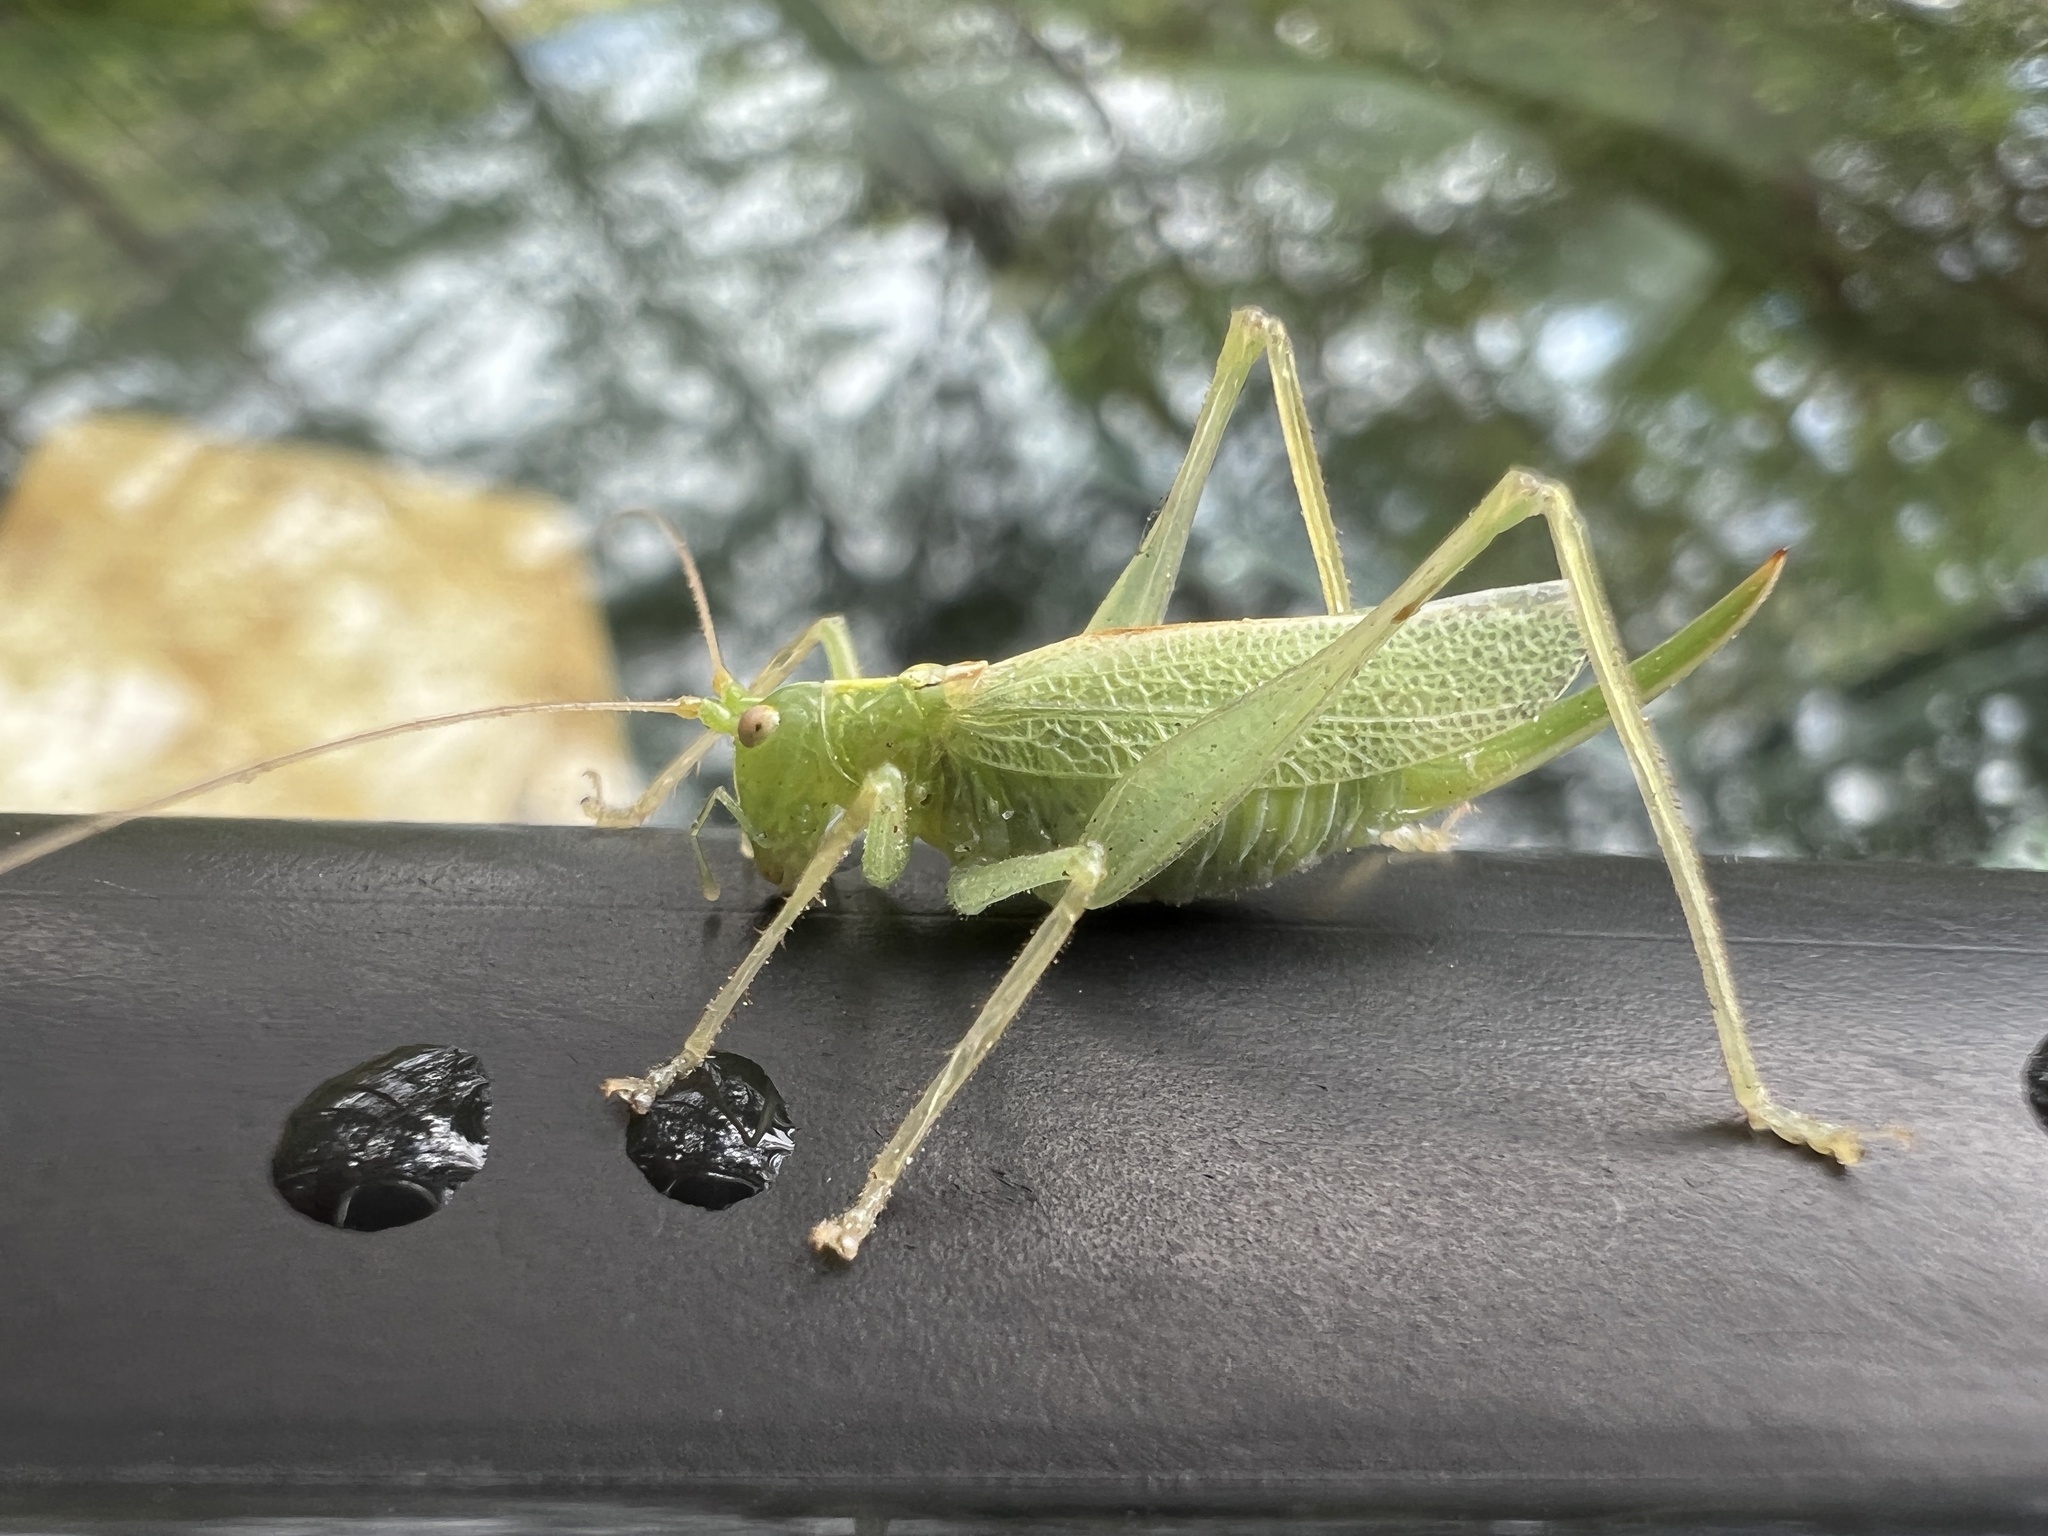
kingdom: Animalia
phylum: Arthropoda
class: Insecta
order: Orthoptera
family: Tettigoniidae
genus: Meconema
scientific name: Meconema thalassinum
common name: Oak bush-cricket
